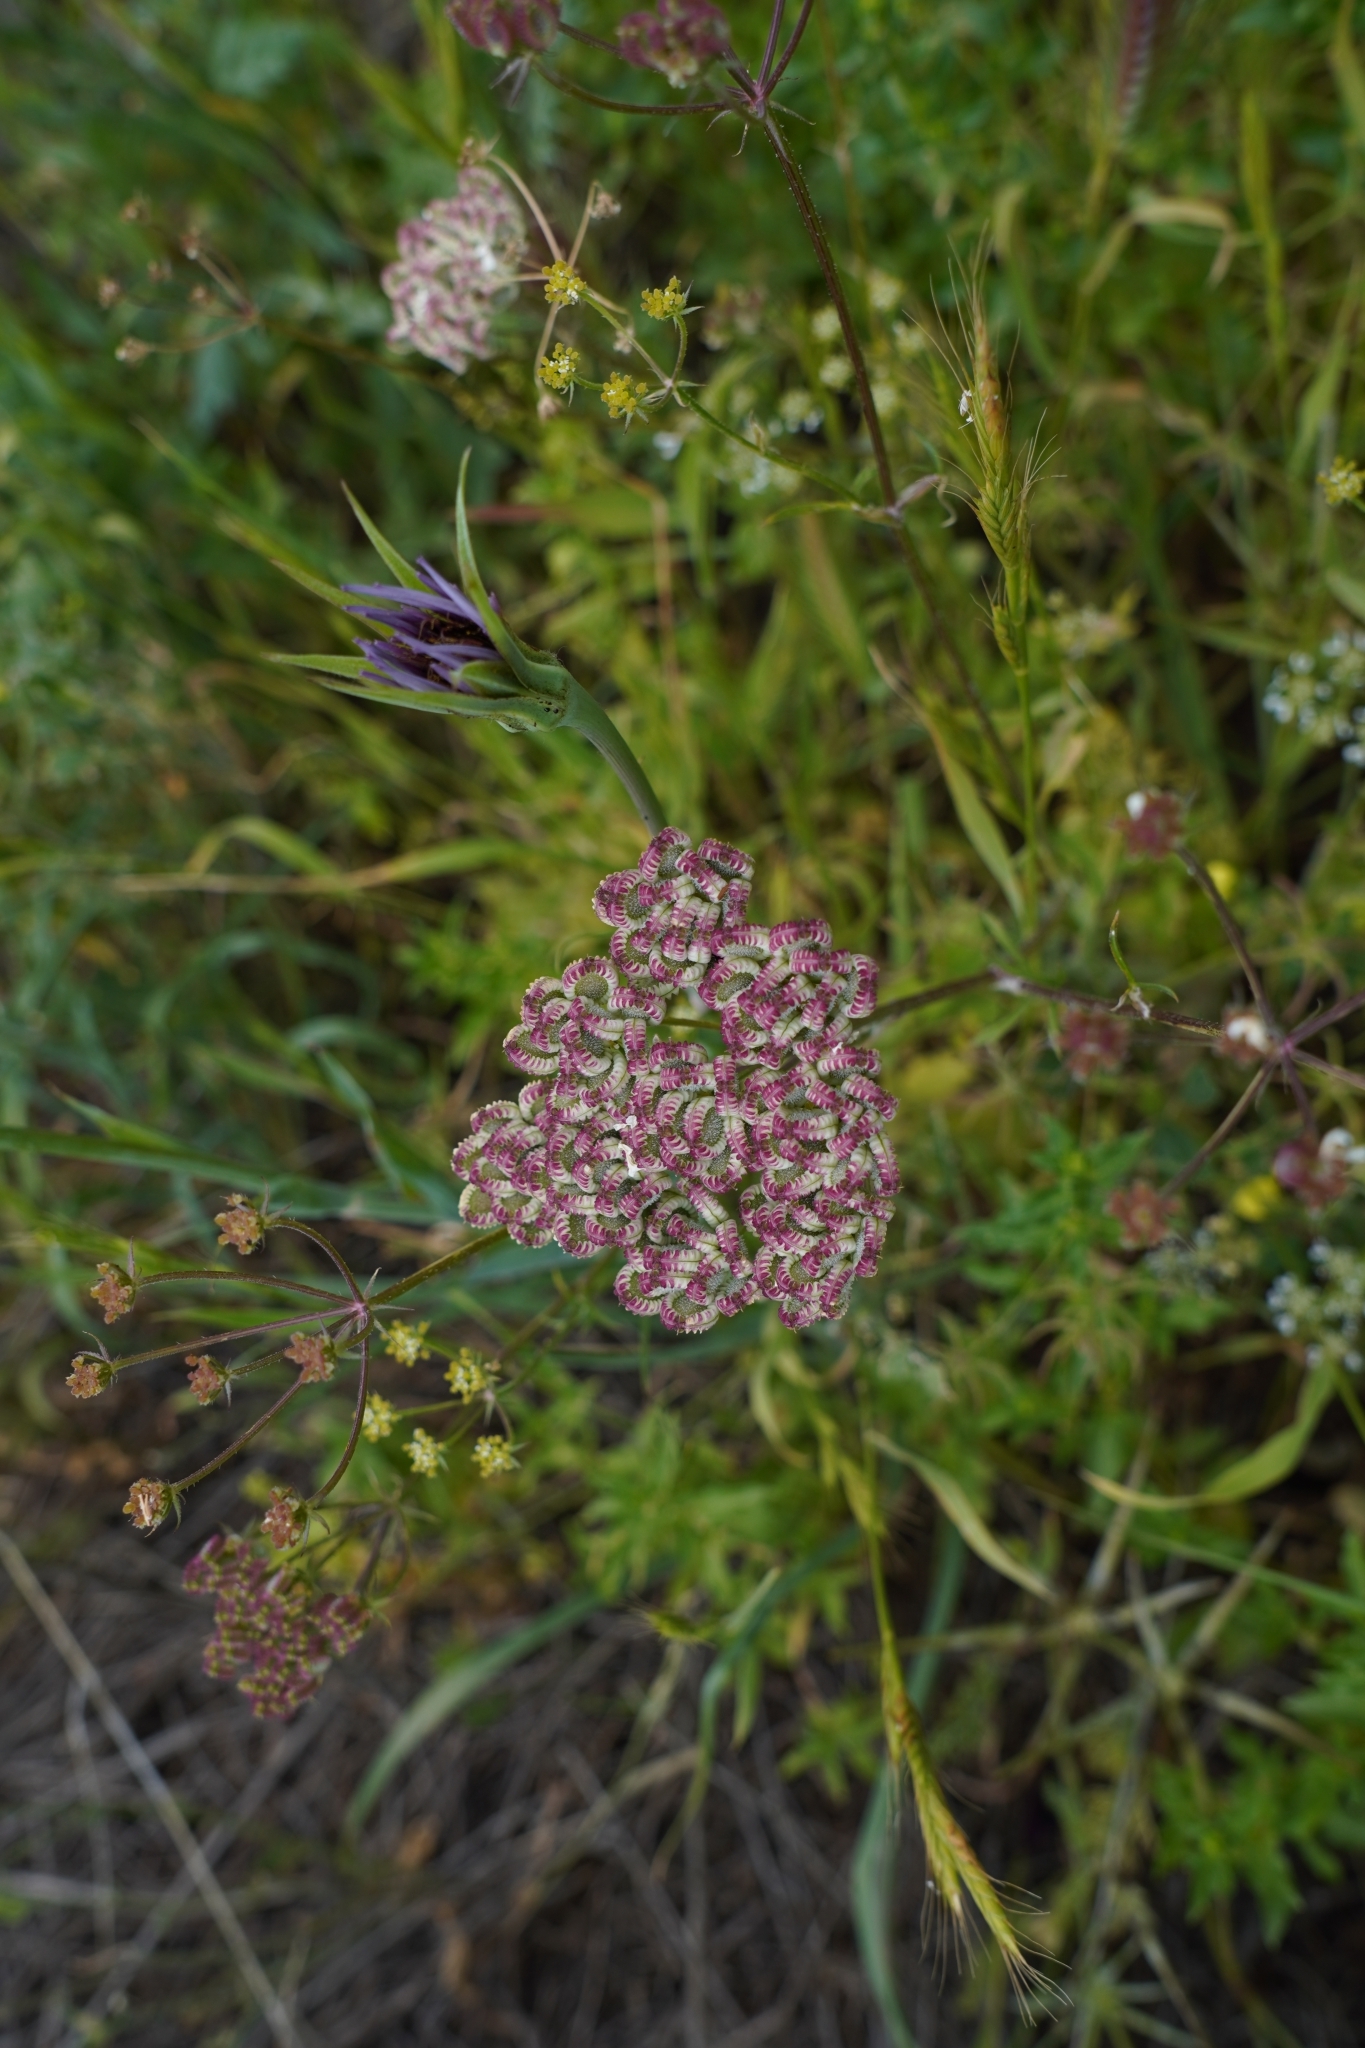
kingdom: Plantae
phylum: Tracheophyta
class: Magnoliopsida
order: Apiales
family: Apiaceae
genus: Tordylium
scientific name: Tordylium apulum
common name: Mediterranean hartwort
